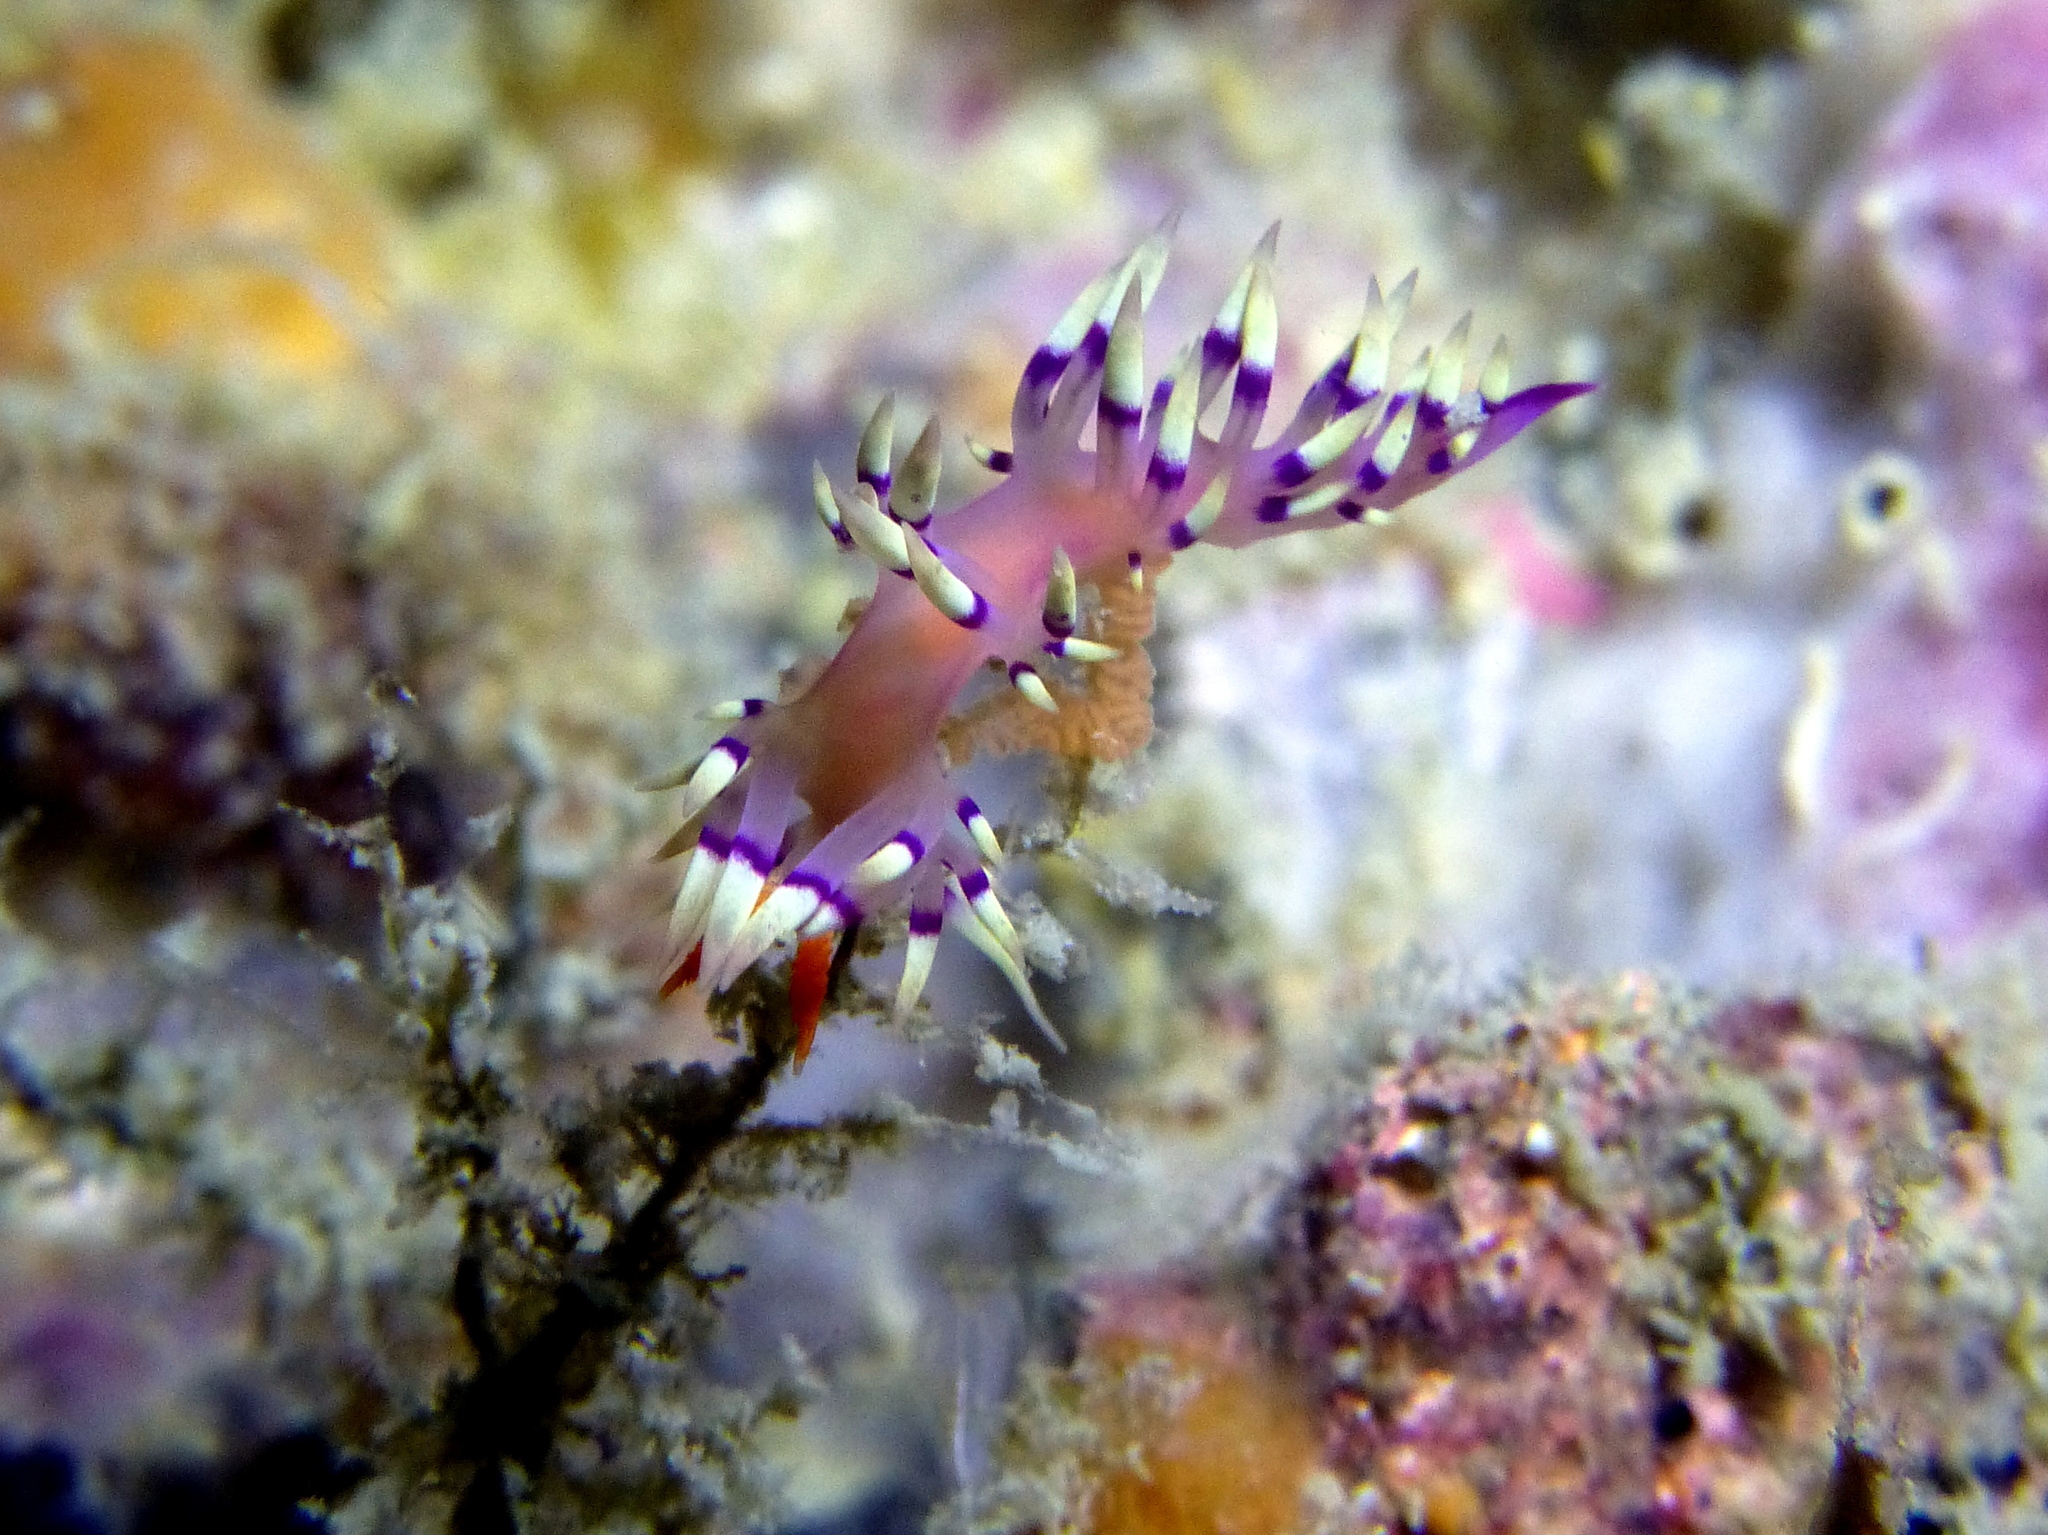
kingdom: Animalia
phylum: Mollusca
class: Gastropoda
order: Nudibranchia
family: Flabellinidae
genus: Coryphellina
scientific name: Coryphellina exoptata
